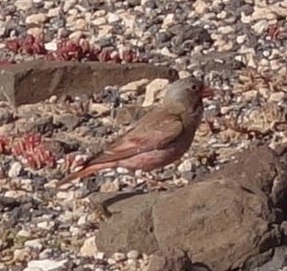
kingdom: Animalia
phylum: Chordata
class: Aves
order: Passeriformes
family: Fringillidae
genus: Bucanetes
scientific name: Bucanetes githagineus
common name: Trumpeter finch
